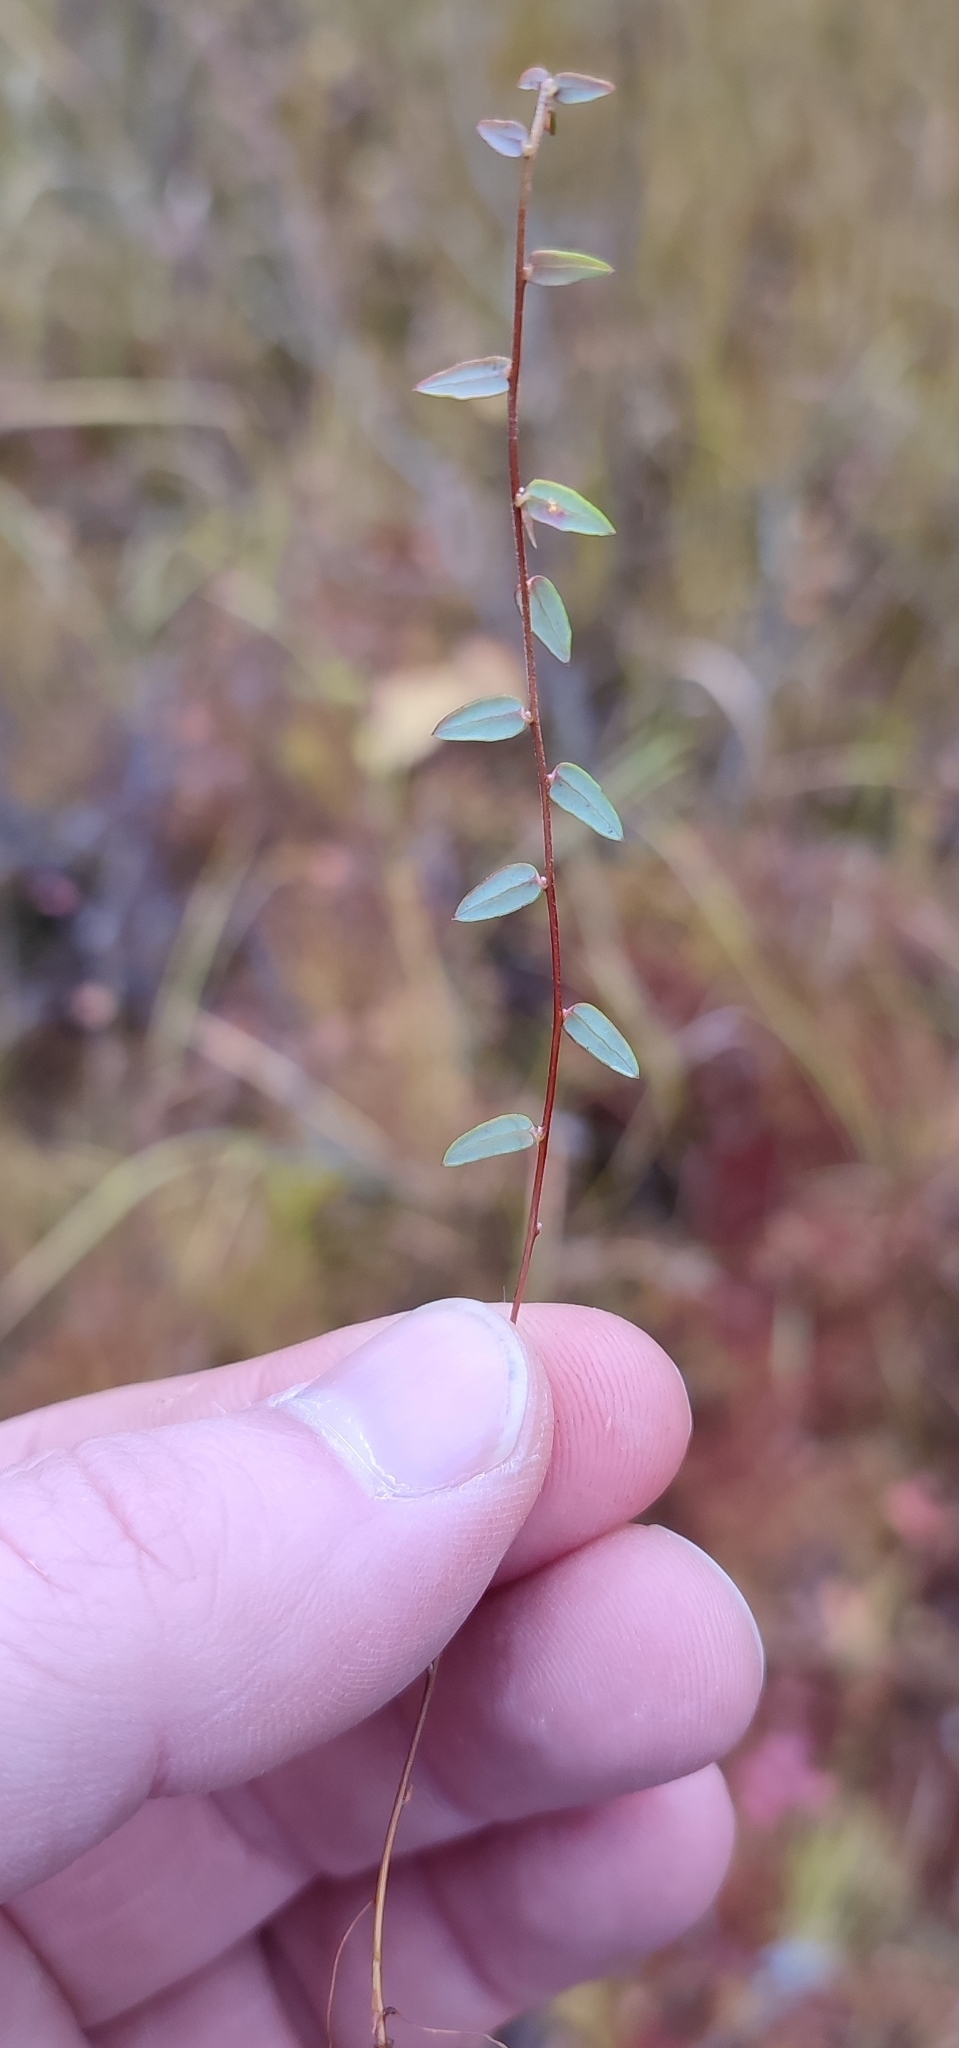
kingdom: Plantae
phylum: Tracheophyta
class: Magnoliopsida
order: Ericales
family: Ericaceae
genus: Vaccinium
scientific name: Vaccinium oxycoccos
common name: Cranberry
